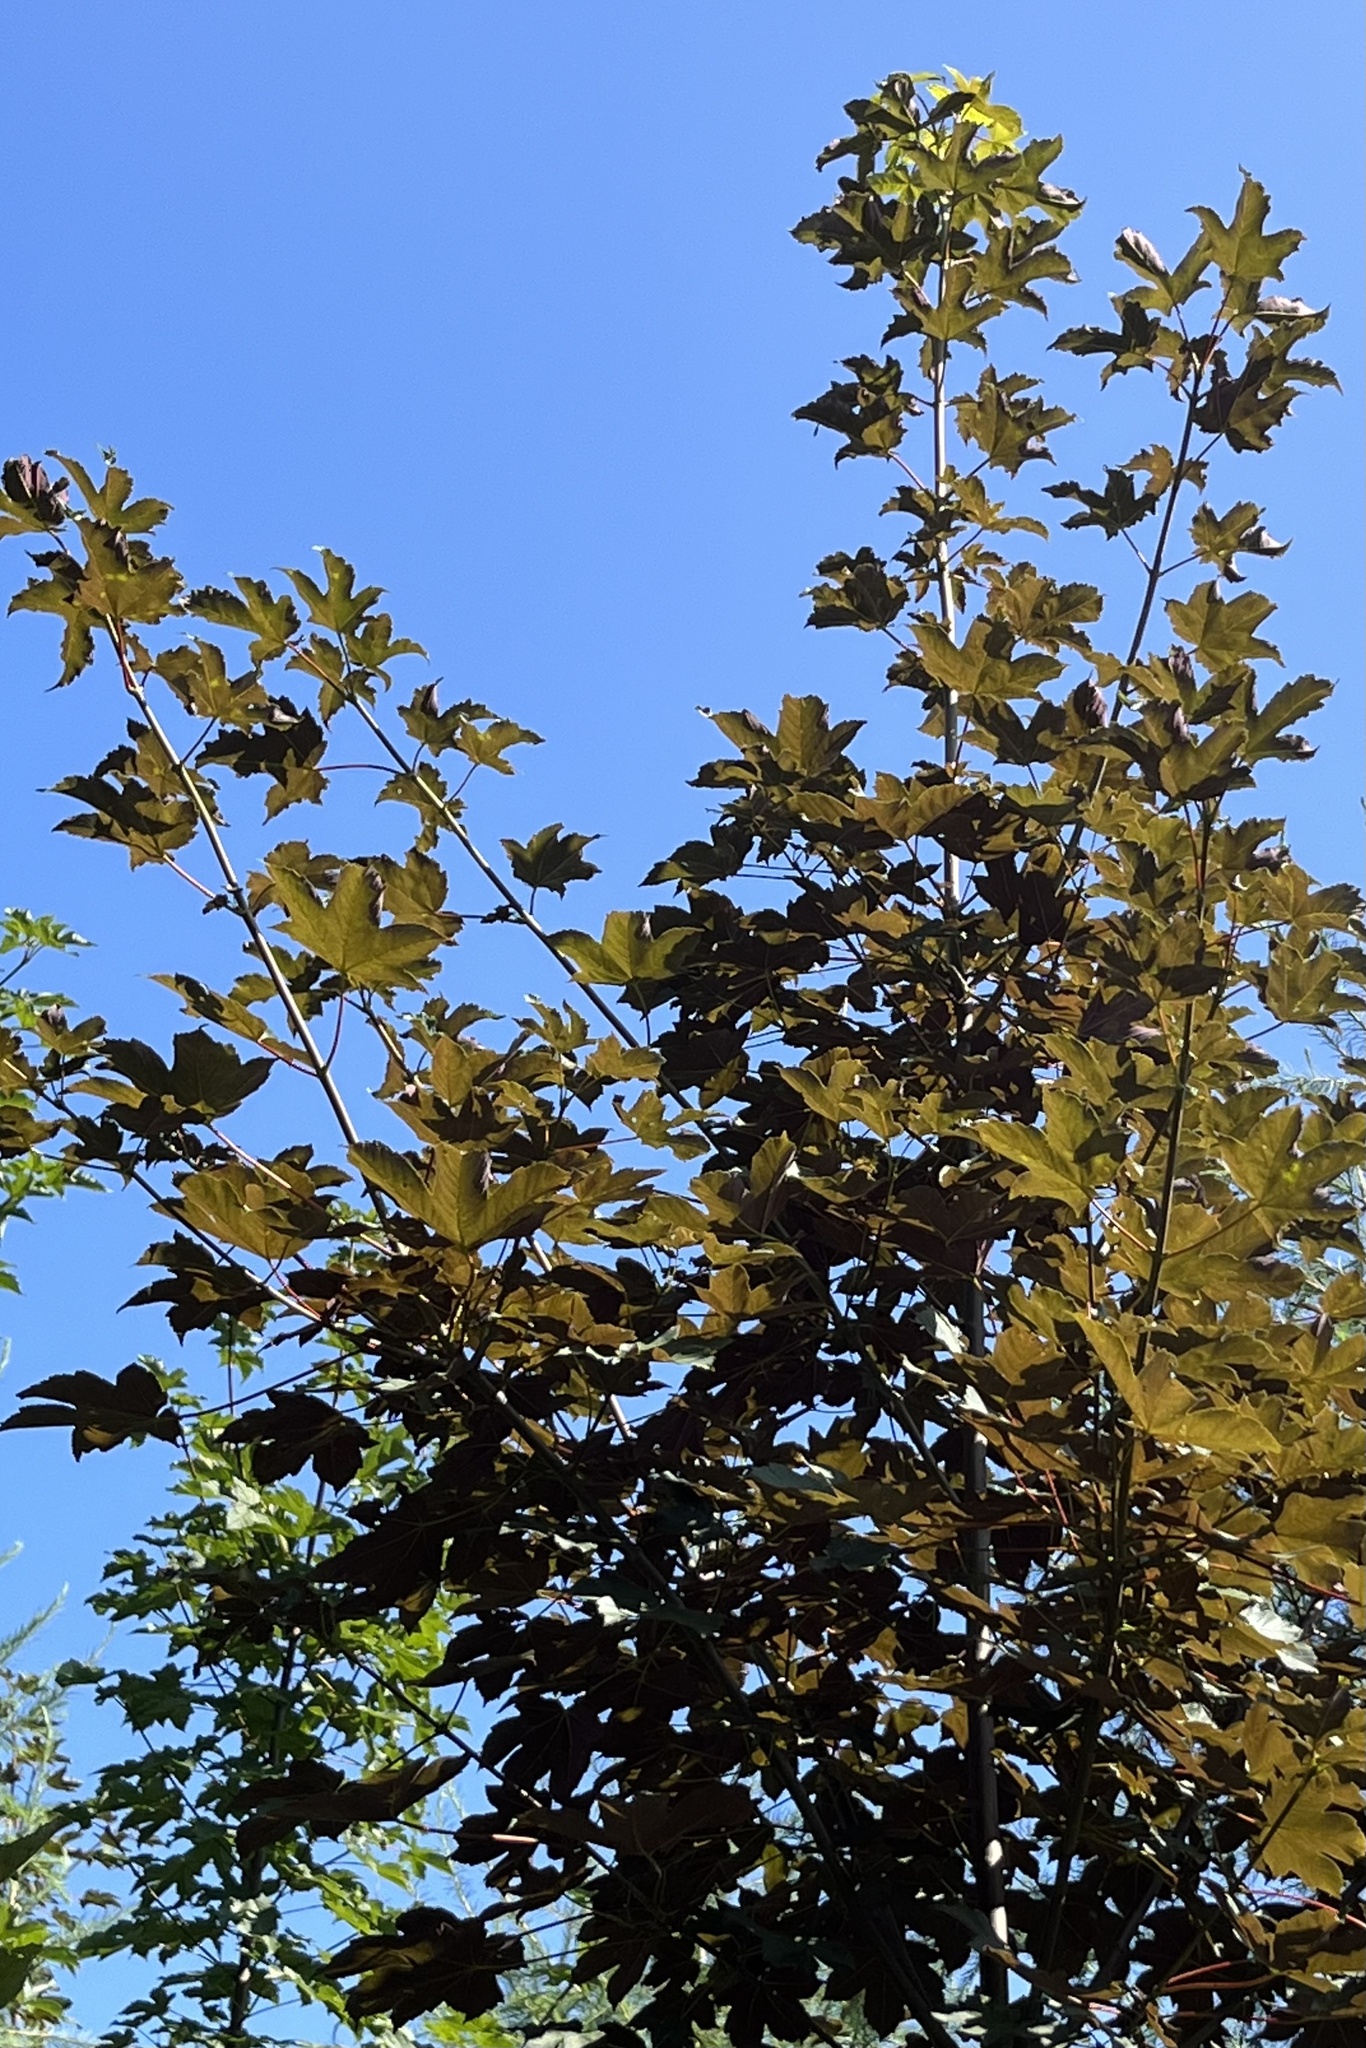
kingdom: Plantae
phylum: Tracheophyta
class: Magnoliopsida
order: Sapindales
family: Sapindaceae
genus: Acer
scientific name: Acer pseudoplatanus
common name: Sycamore
